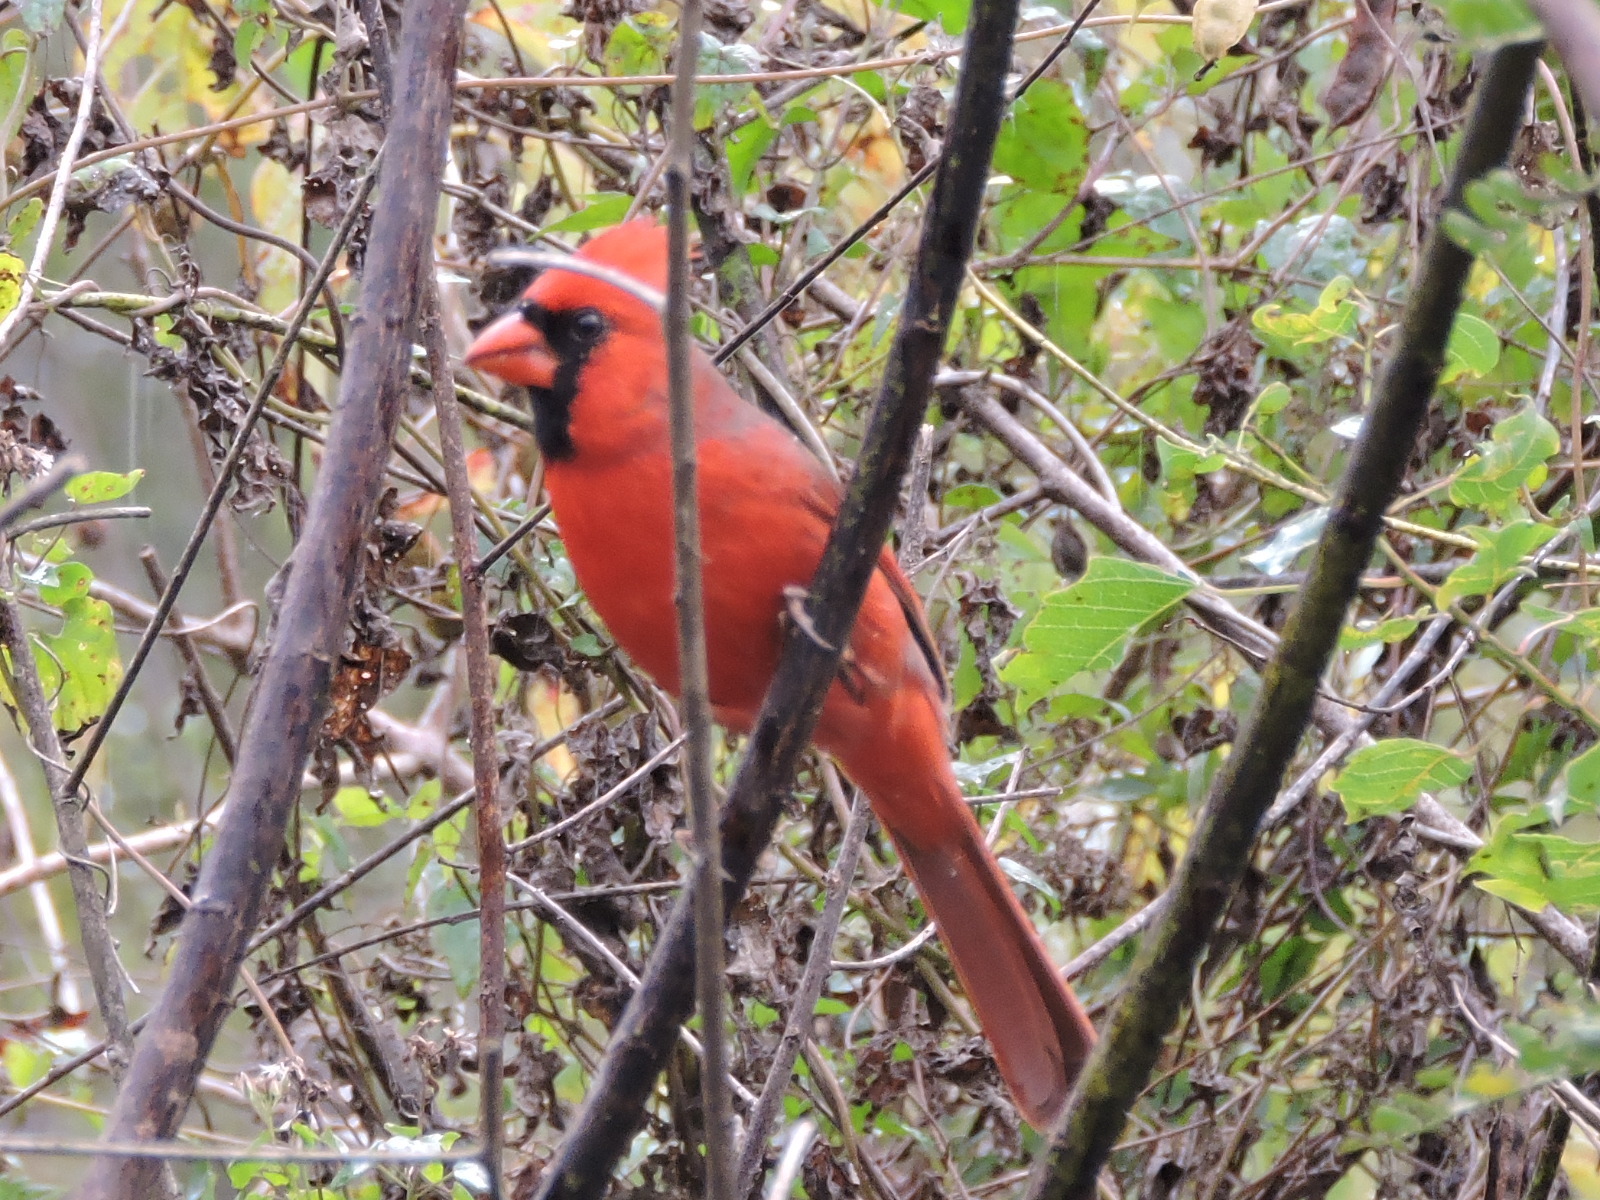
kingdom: Animalia
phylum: Chordata
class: Aves
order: Passeriformes
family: Cardinalidae
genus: Cardinalis
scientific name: Cardinalis cardinalis
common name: Northern cardinal
